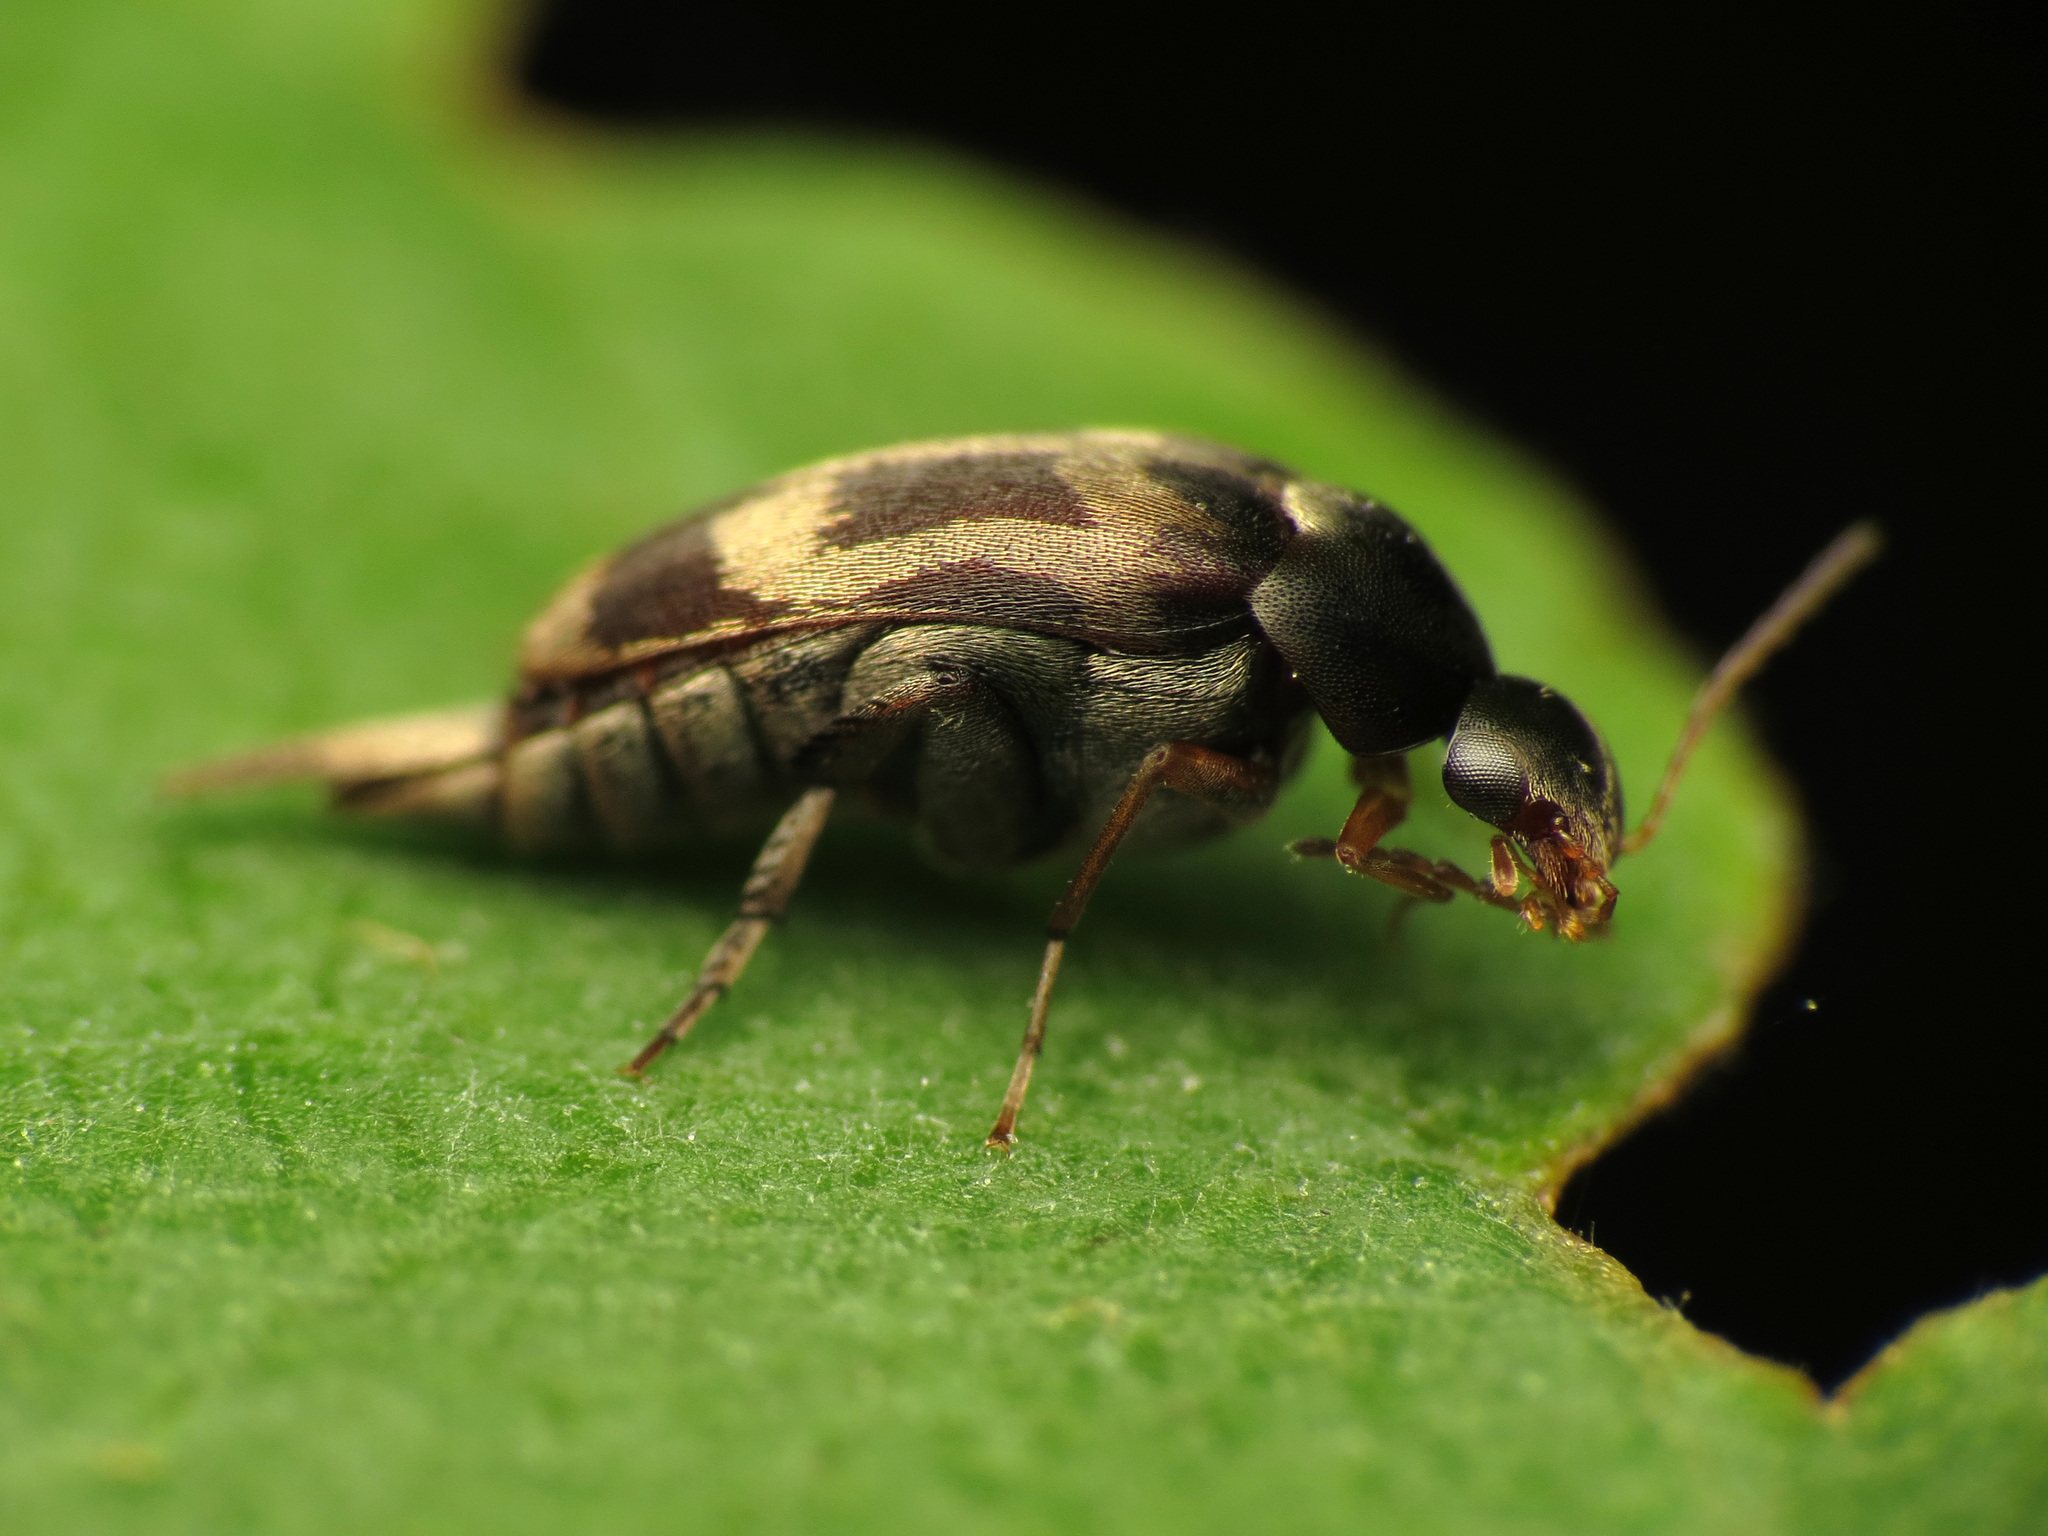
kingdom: Animalia
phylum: Arthropoda
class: Insecta
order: Coleoptera
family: Mordellidae
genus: Falsomordellistena
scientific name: Falsomordellistena hebraica
